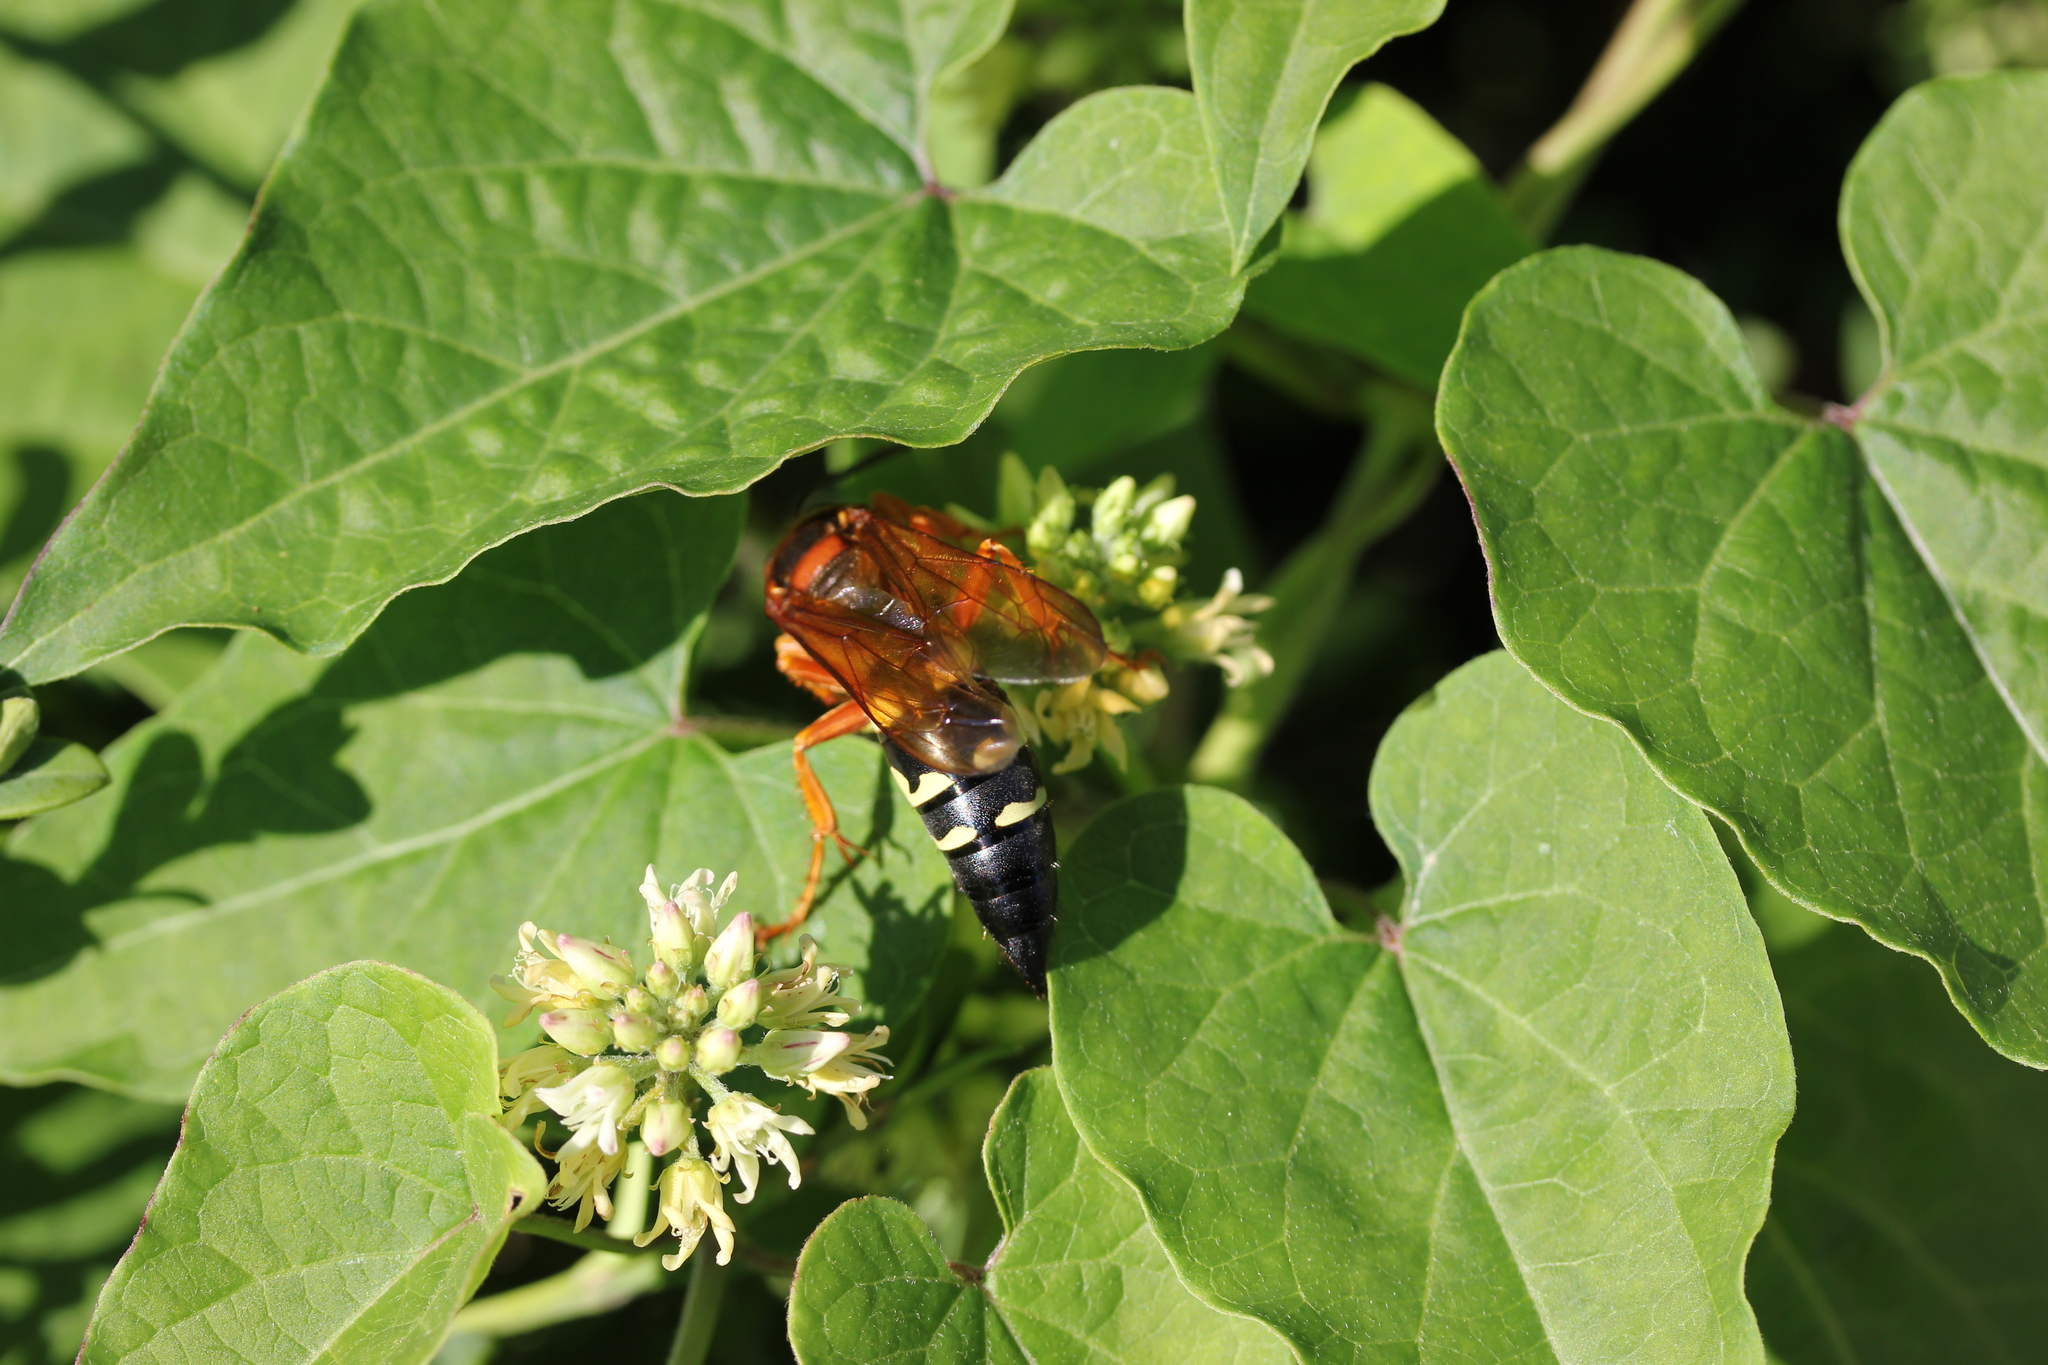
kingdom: Plantae
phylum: Tracheophyta
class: Magnoliopsida
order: Gentianales
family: Apocynaceae
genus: Cynanchum
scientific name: Cynanchum laeve
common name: Sandvine
